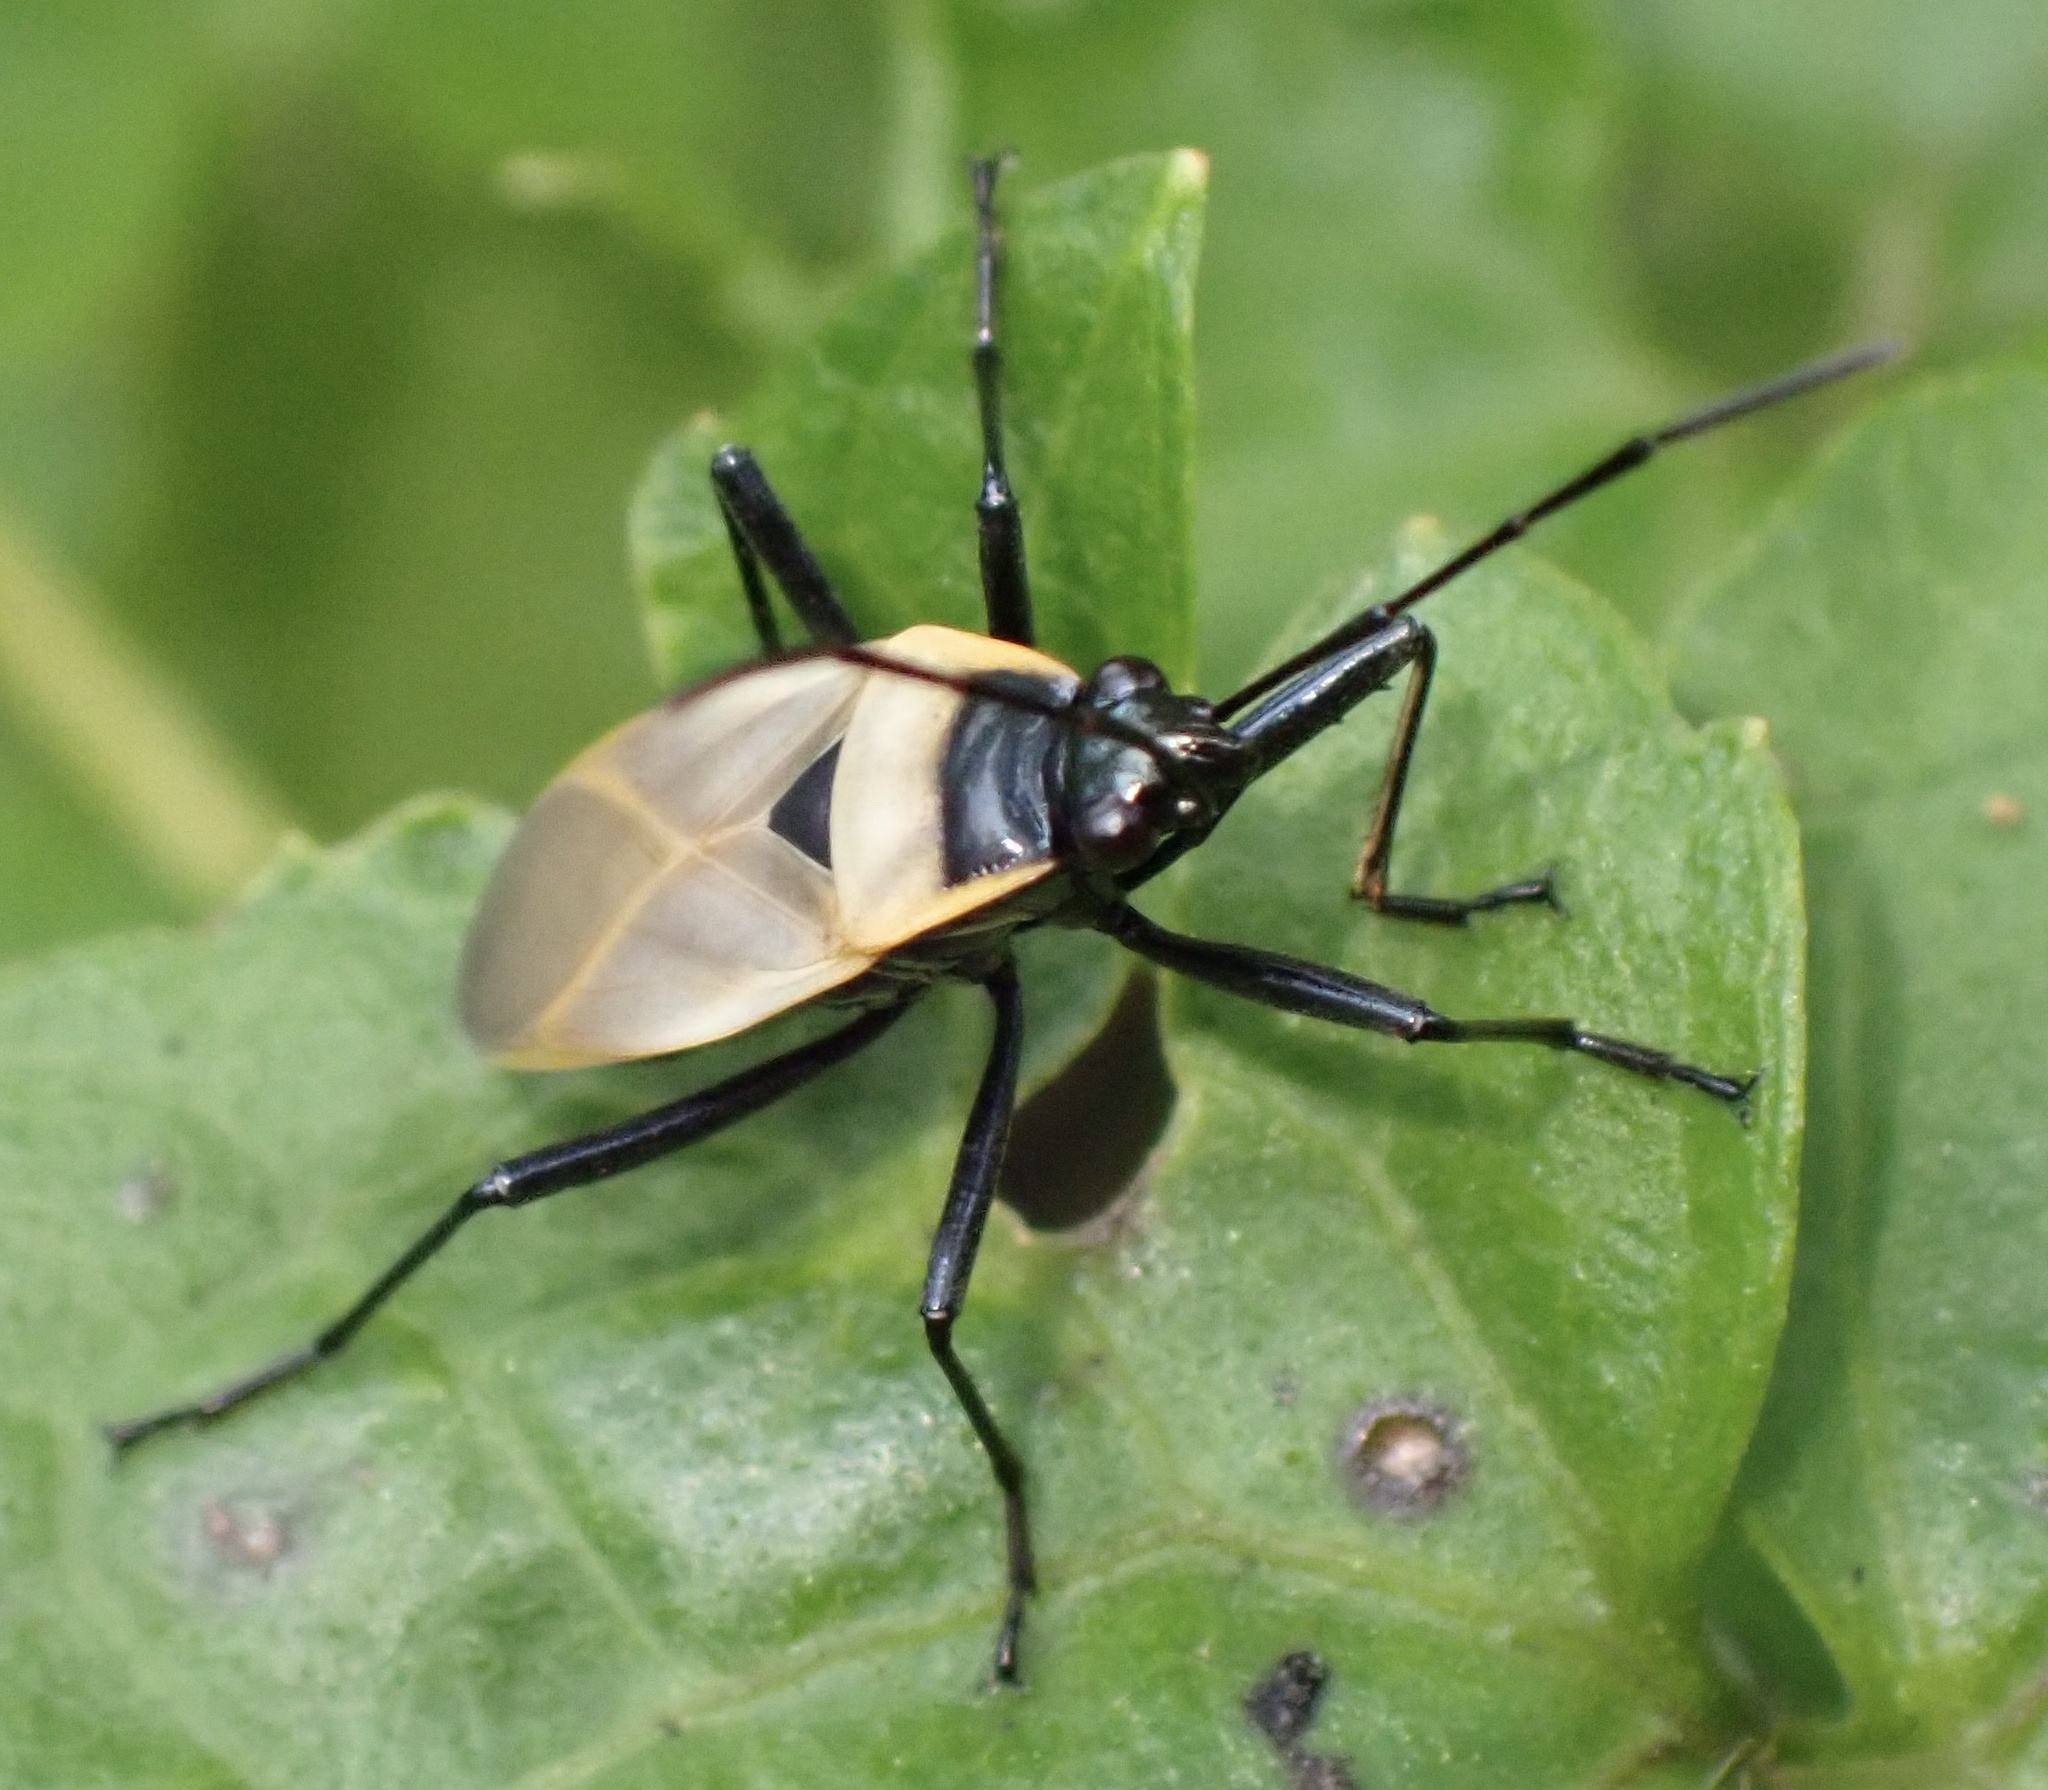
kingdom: Animalia
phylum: Arthropoda
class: Insecta
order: Hemiptera
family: Pyrrhocoridae
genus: Dindymus
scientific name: Dindymus
